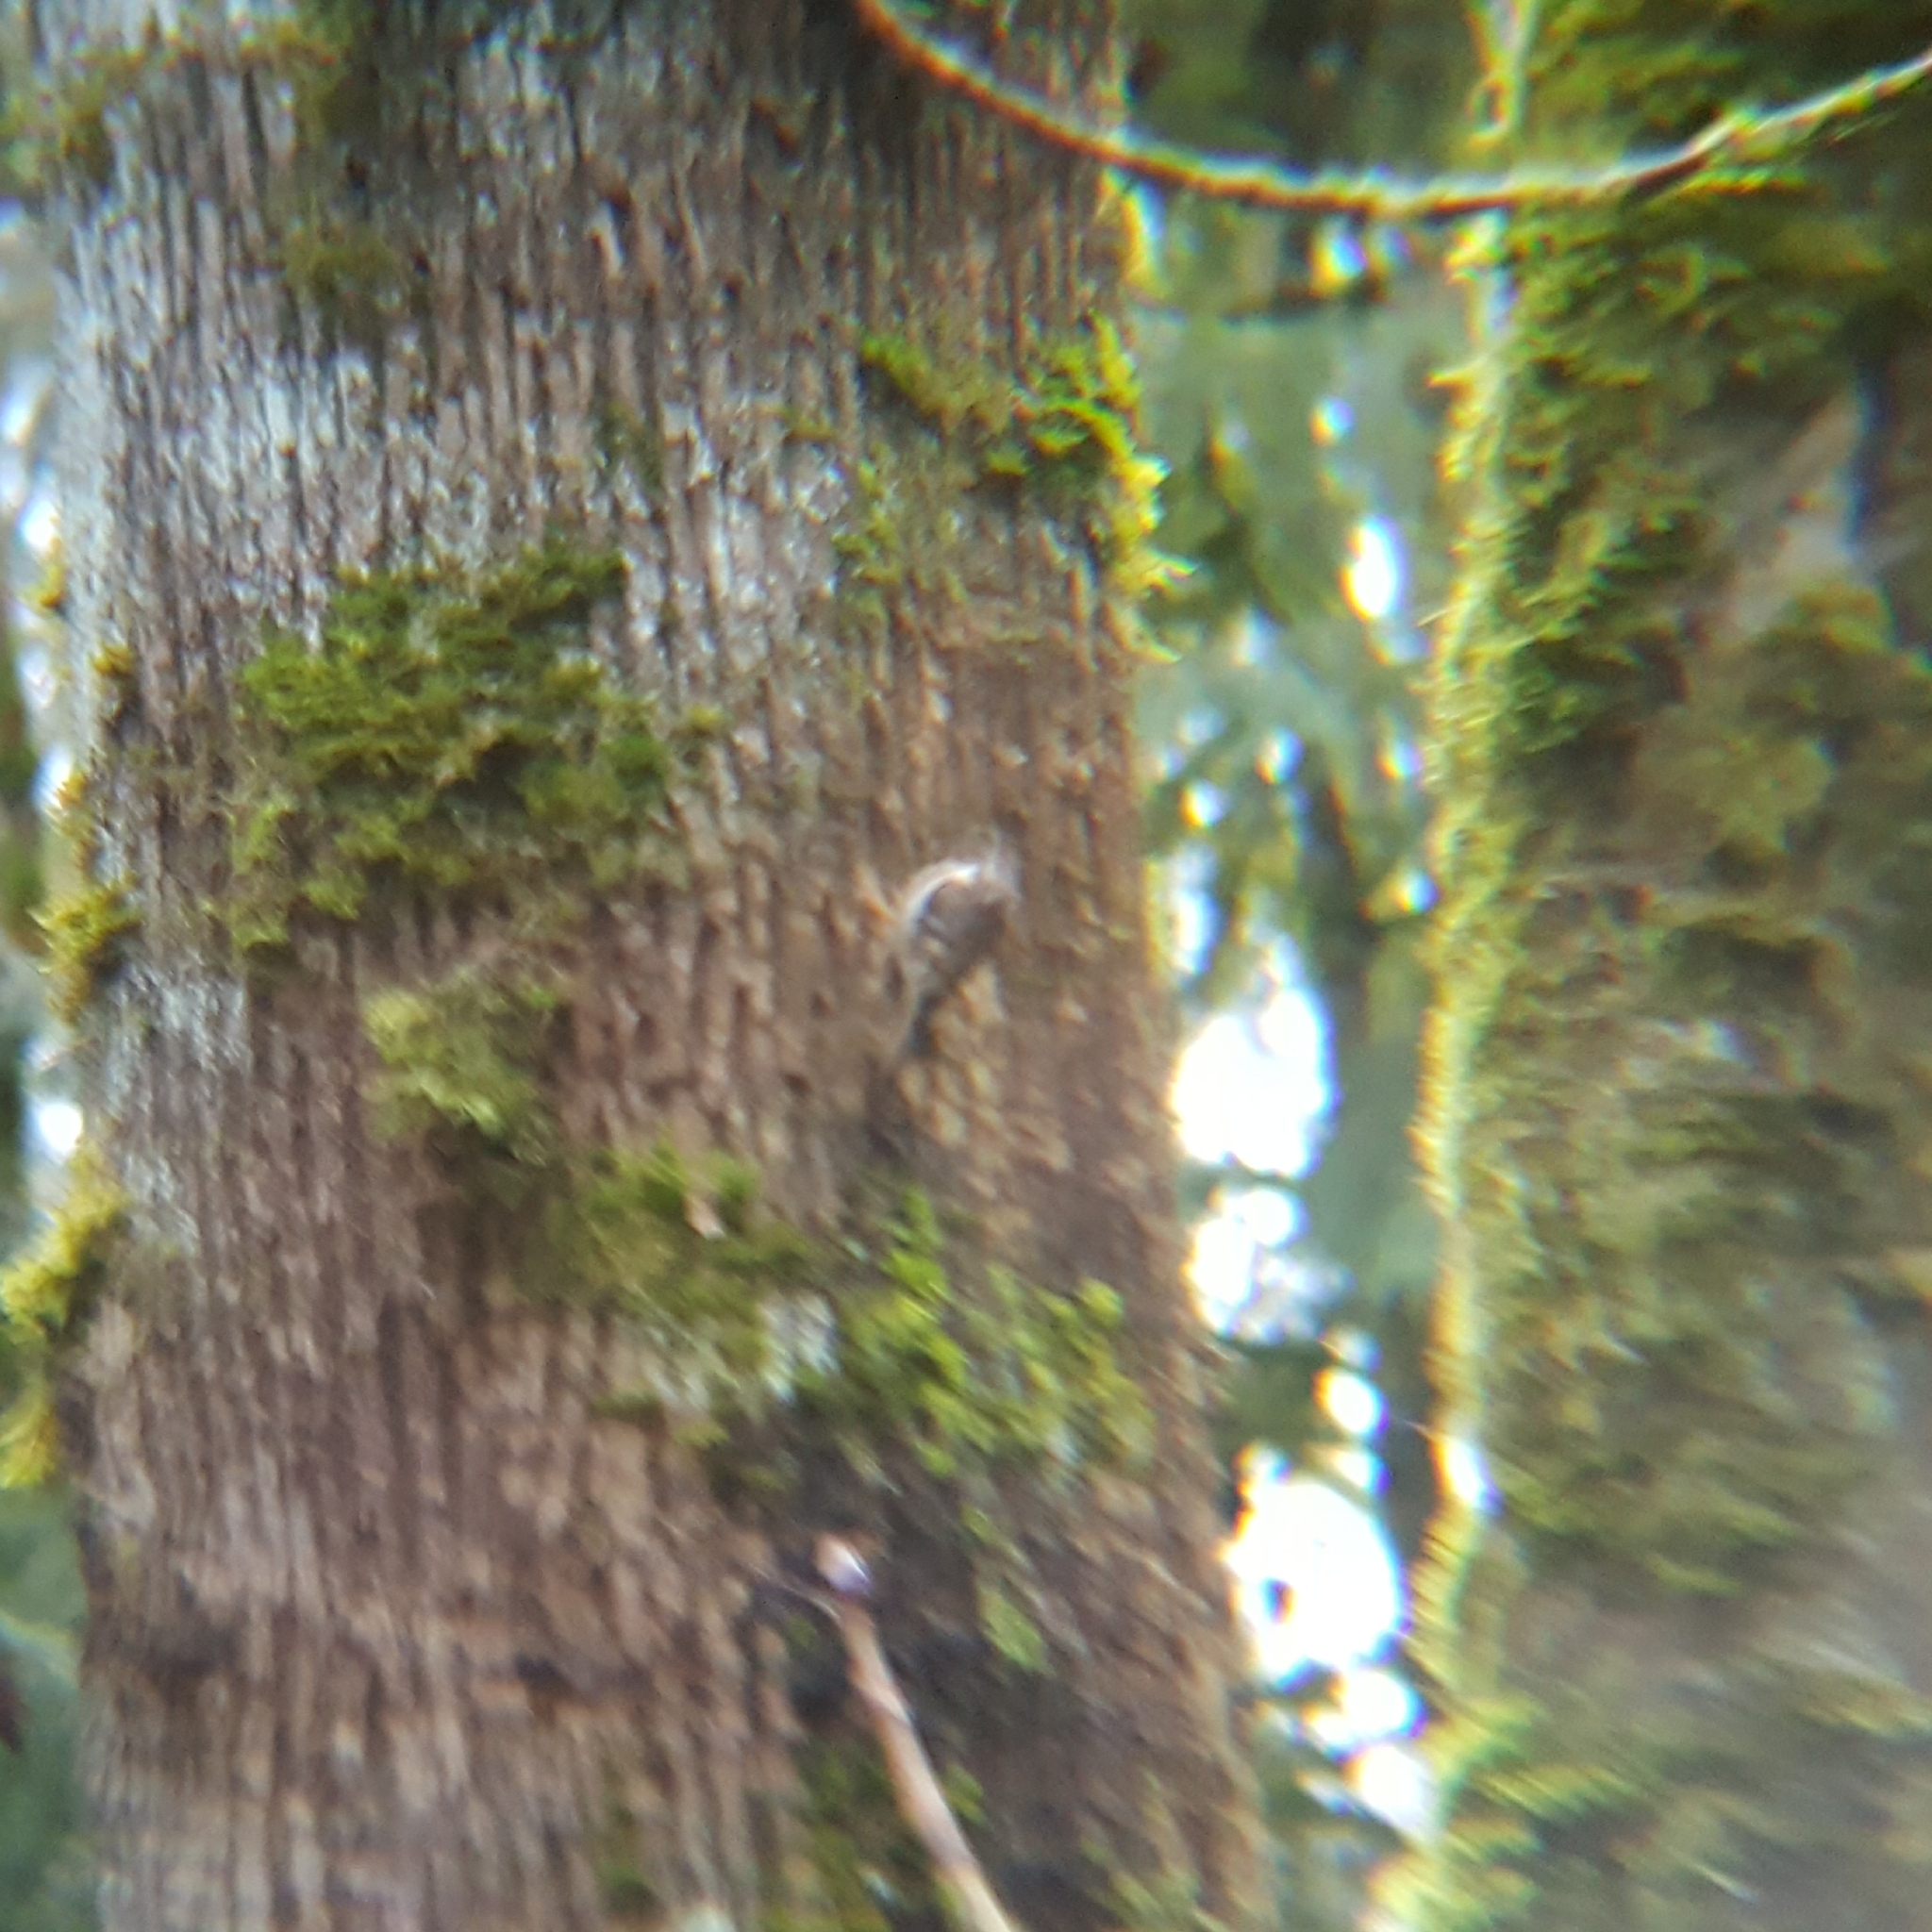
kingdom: Animalia
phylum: Chordata
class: Aves
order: Passeriformes
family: Certhiidae
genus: Certhia
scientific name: Certhia americana
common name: Brown creeper
